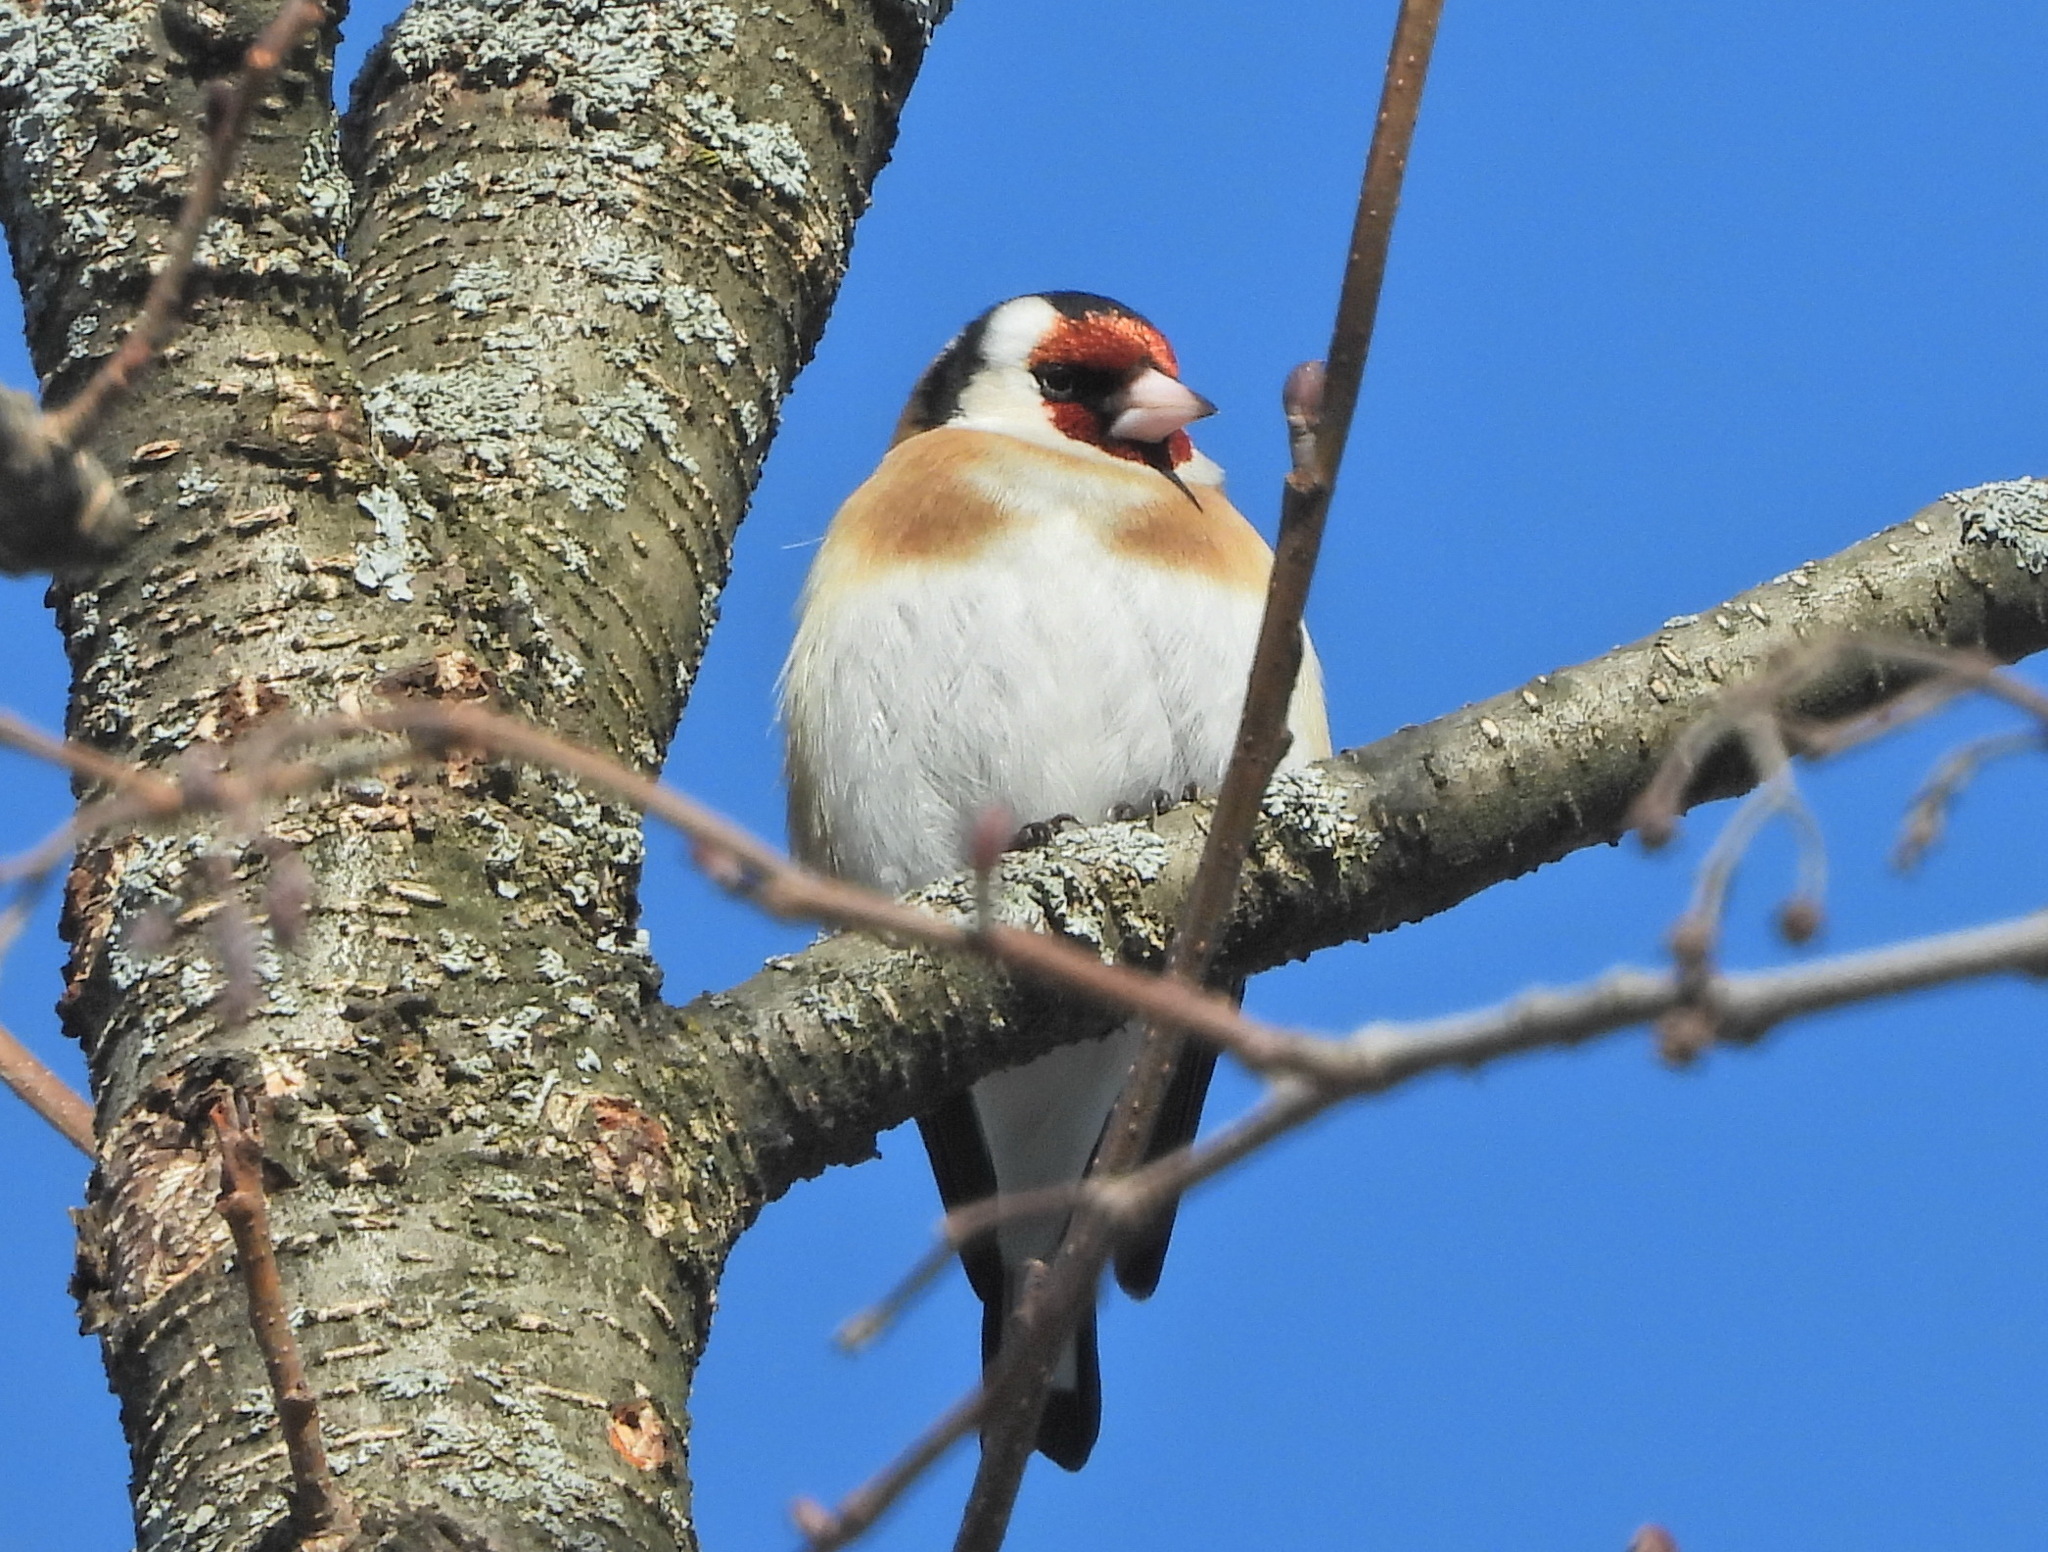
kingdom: Animalia
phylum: Chordata
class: Aves
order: Passeriformes
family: Fringillidae
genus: Carduelis
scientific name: Carduelis carduelis
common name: European goldfinch
